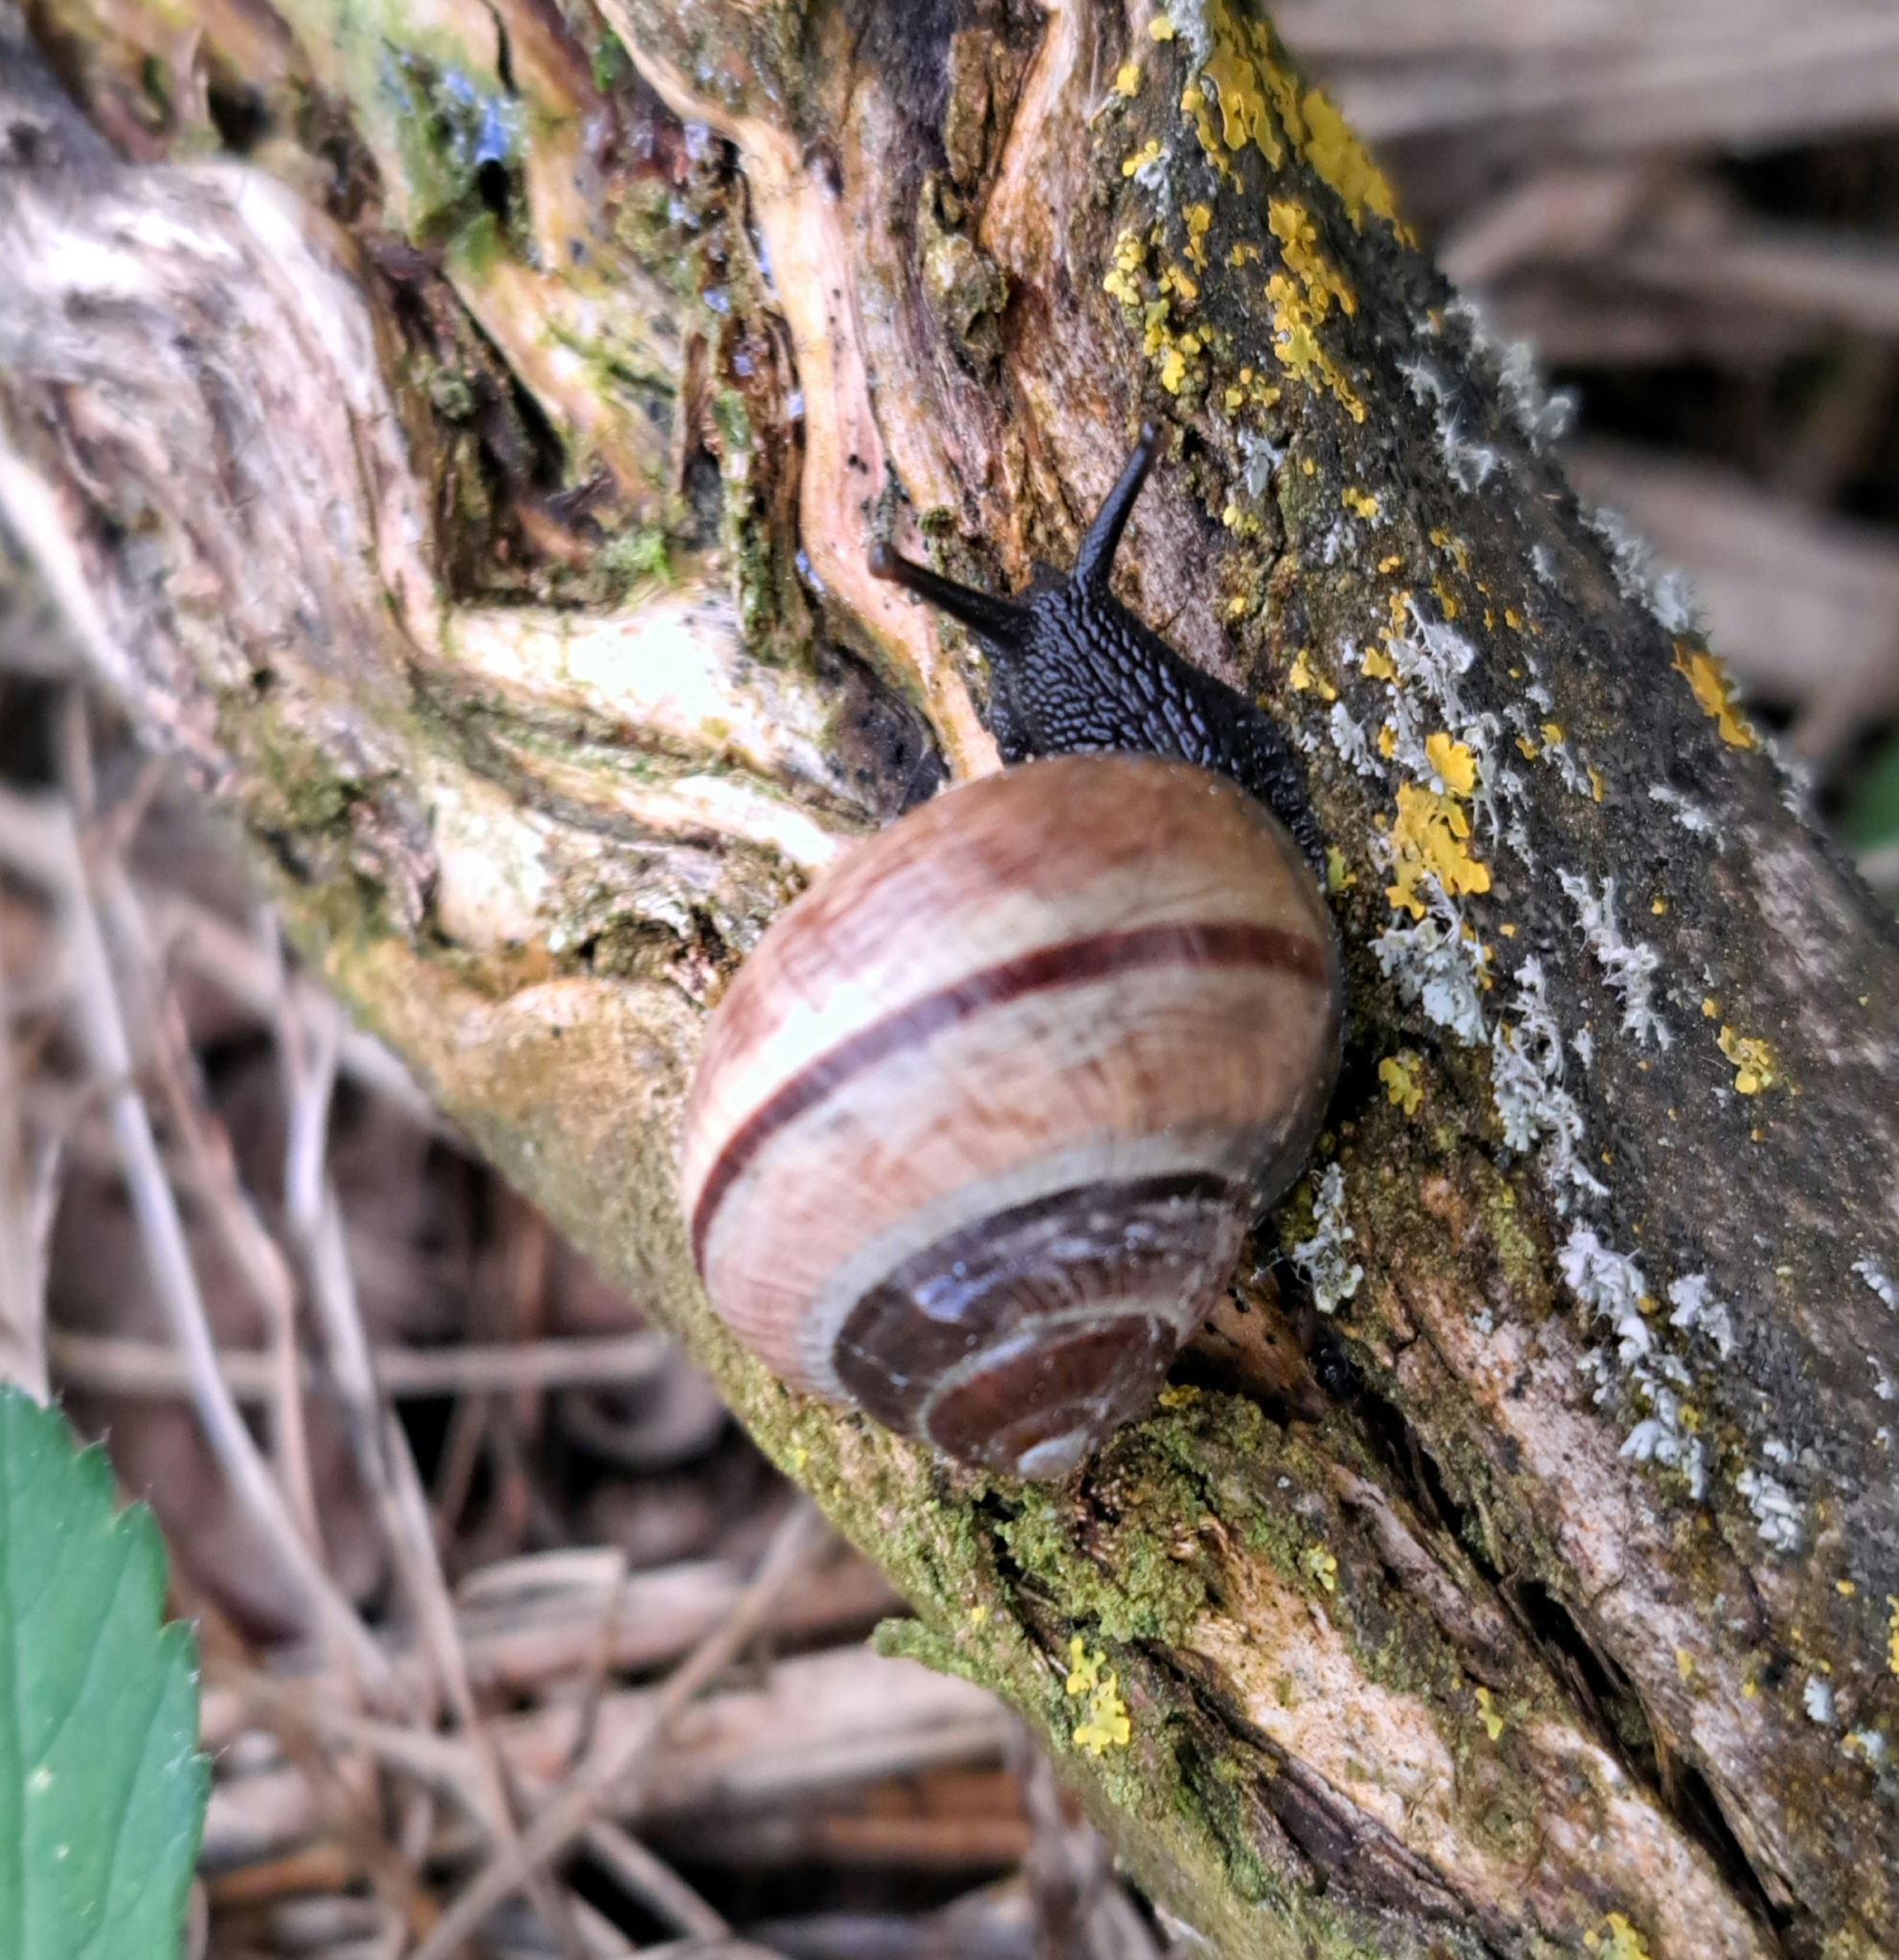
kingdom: Animalia
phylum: Mollusca
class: Gastropoda
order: Stylommatophora
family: Helicidae
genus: Arianta
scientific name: Arianta arbustorum
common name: Copse snail
